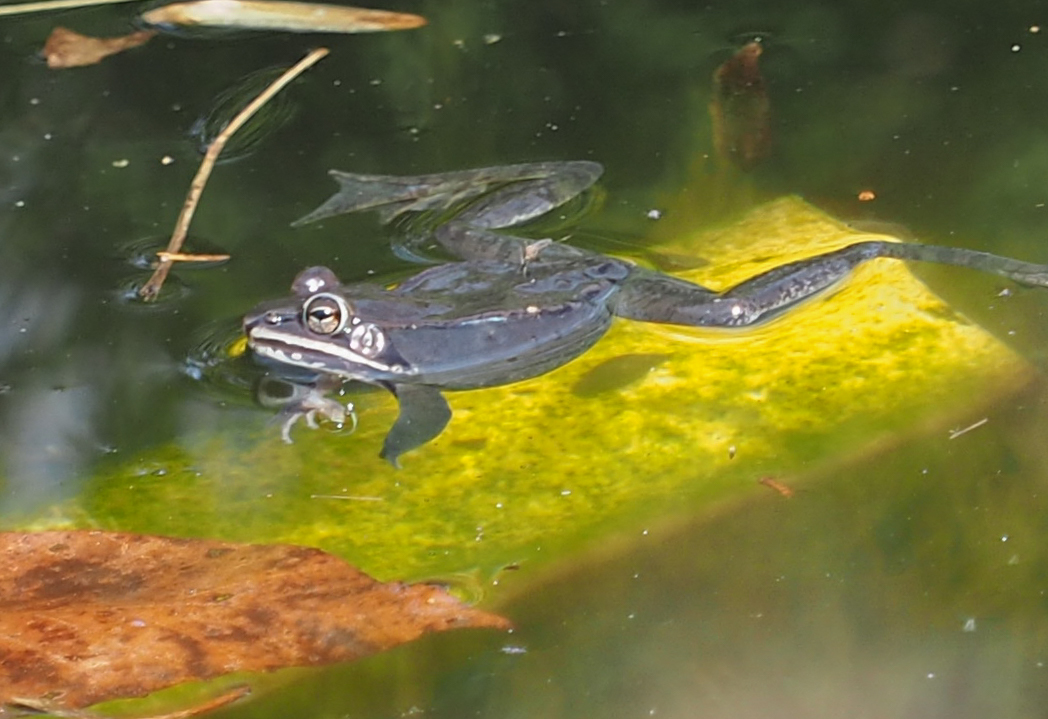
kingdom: Animalia
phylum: Chordata
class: Amphibia
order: Anura
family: Ranidae
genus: Lithobates
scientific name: Lithobates sylvaticus
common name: Wood frog
